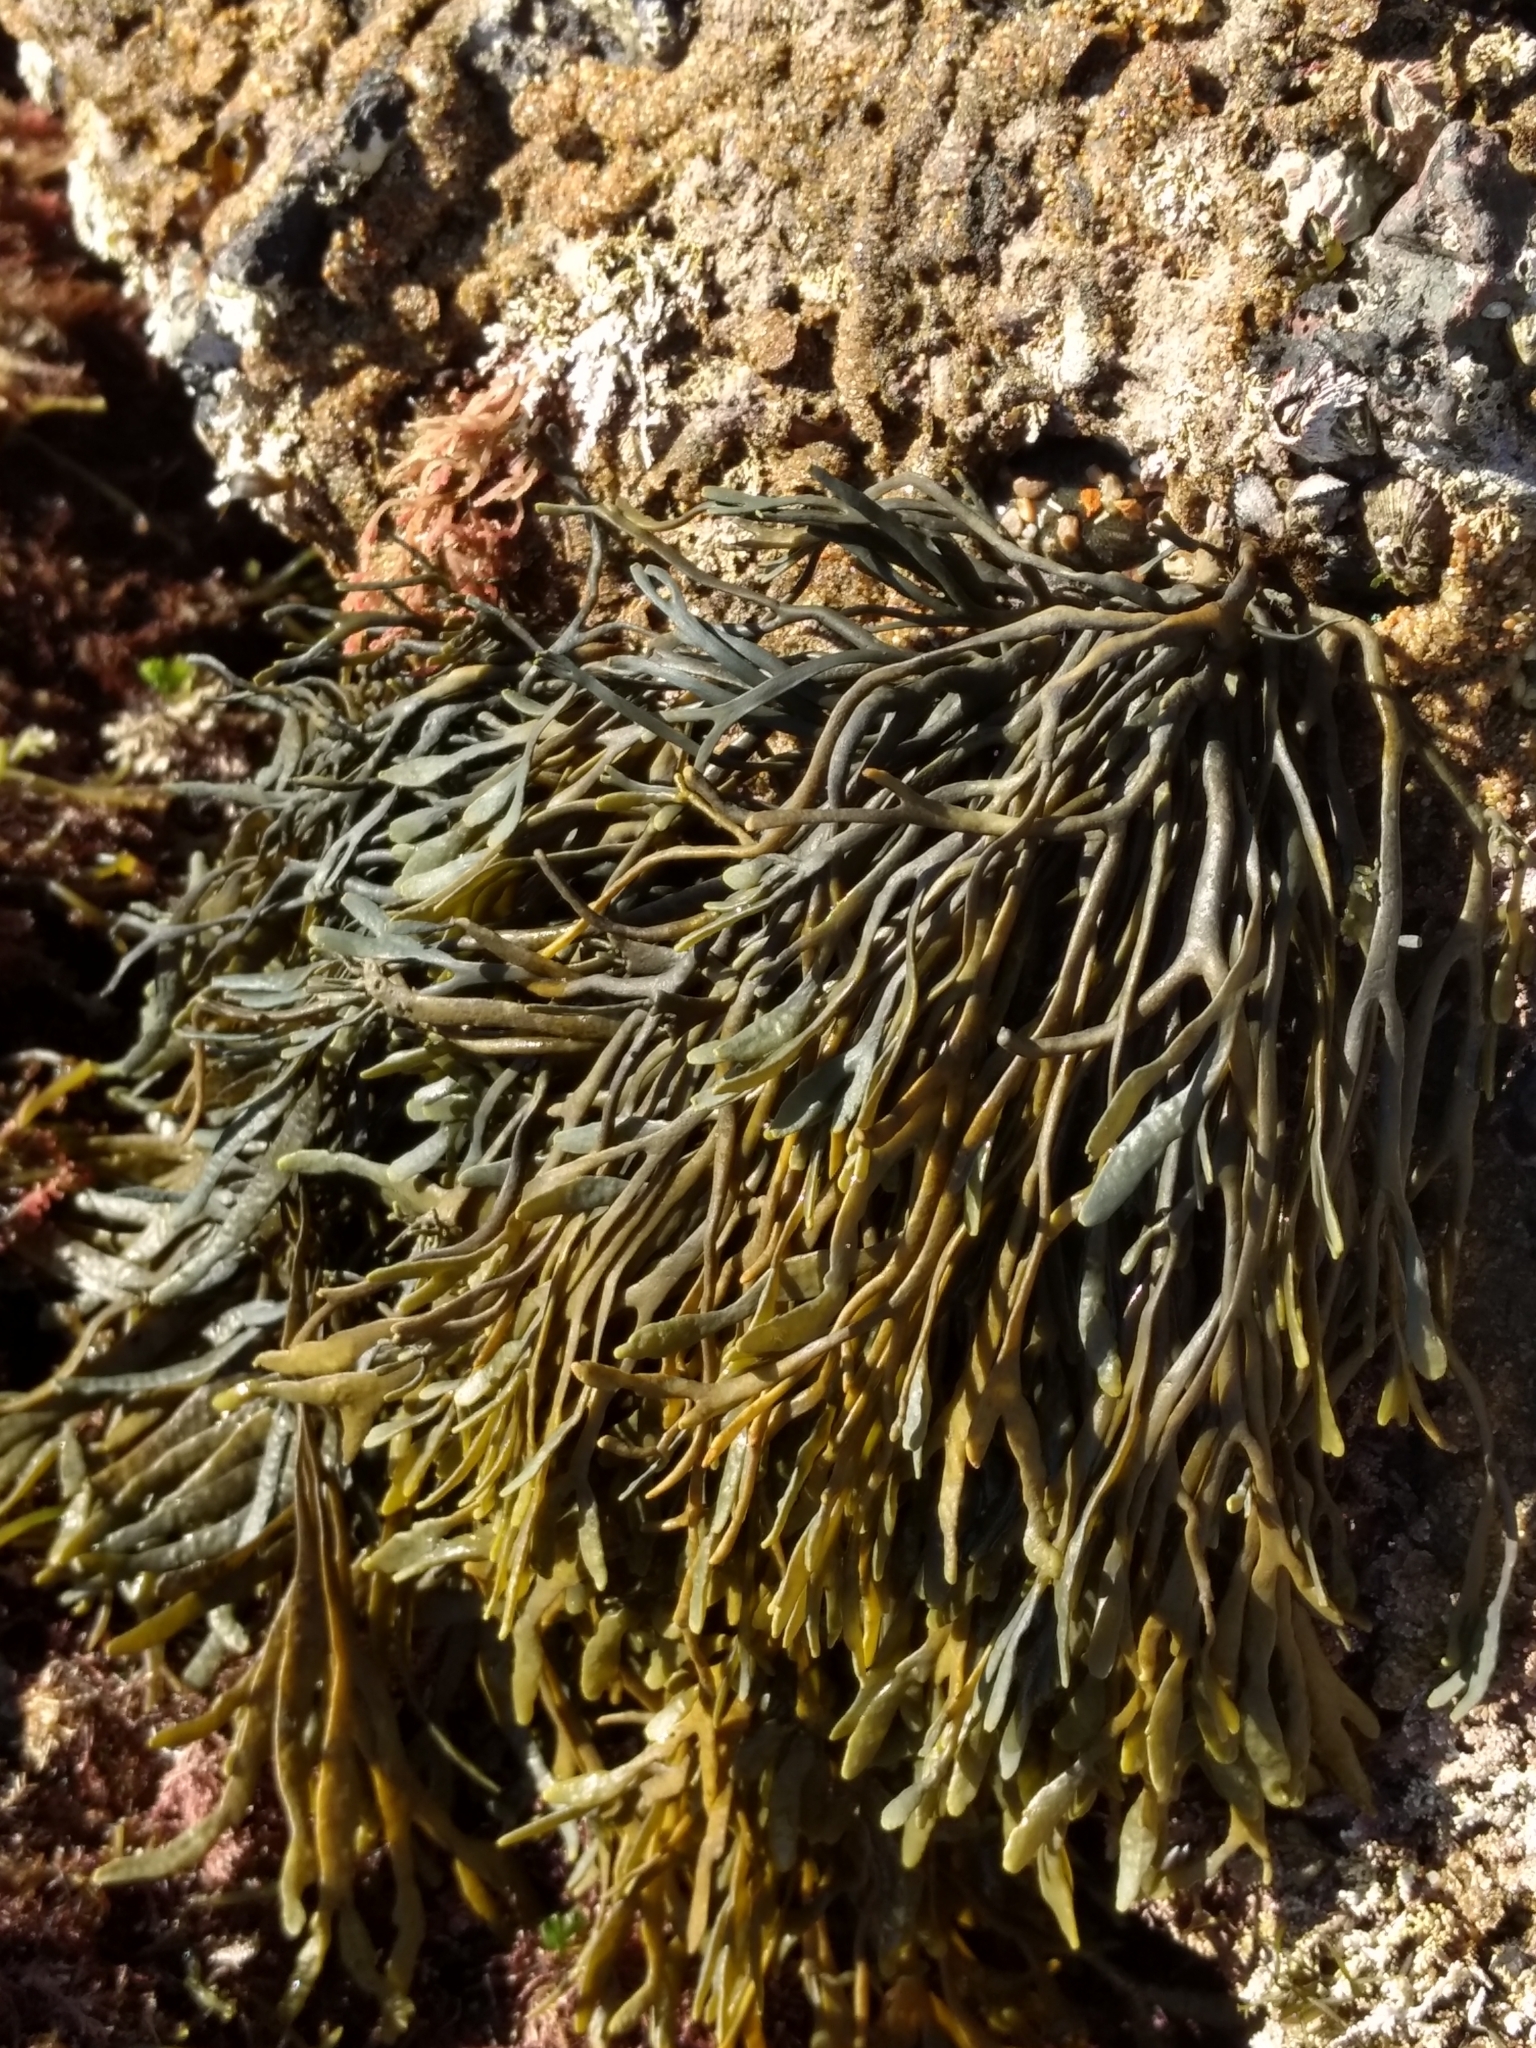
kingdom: Chromista
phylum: Ochrophyta
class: Phaeophyceae
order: Fucales
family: Fucaceae
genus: Silvetia
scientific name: Silvetia
